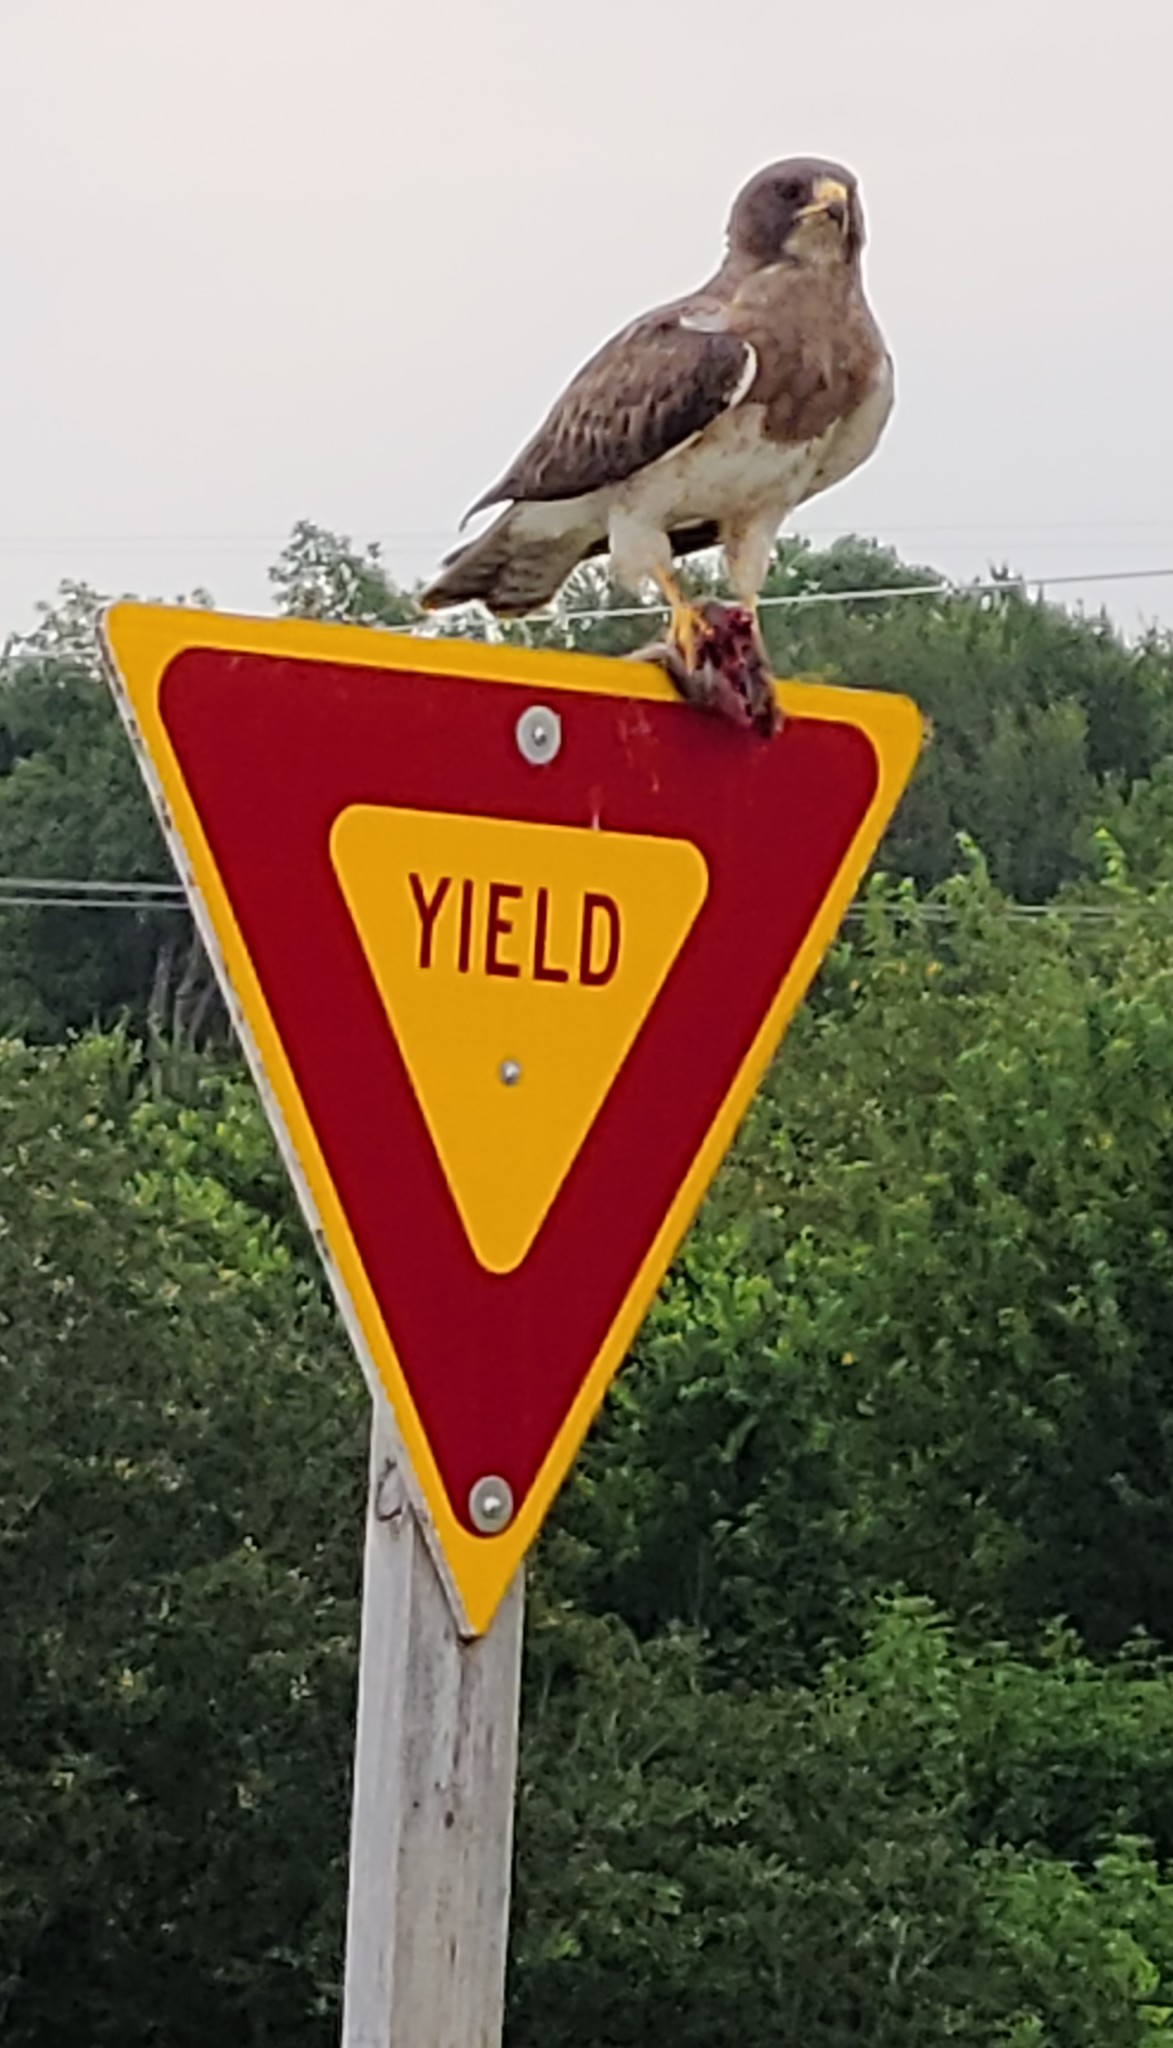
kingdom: Animalia
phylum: Chordata
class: Aves
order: Accipitriformes
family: Accipitridae
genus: Buteo
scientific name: Buteo swainsoni
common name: Swainson's hawk
